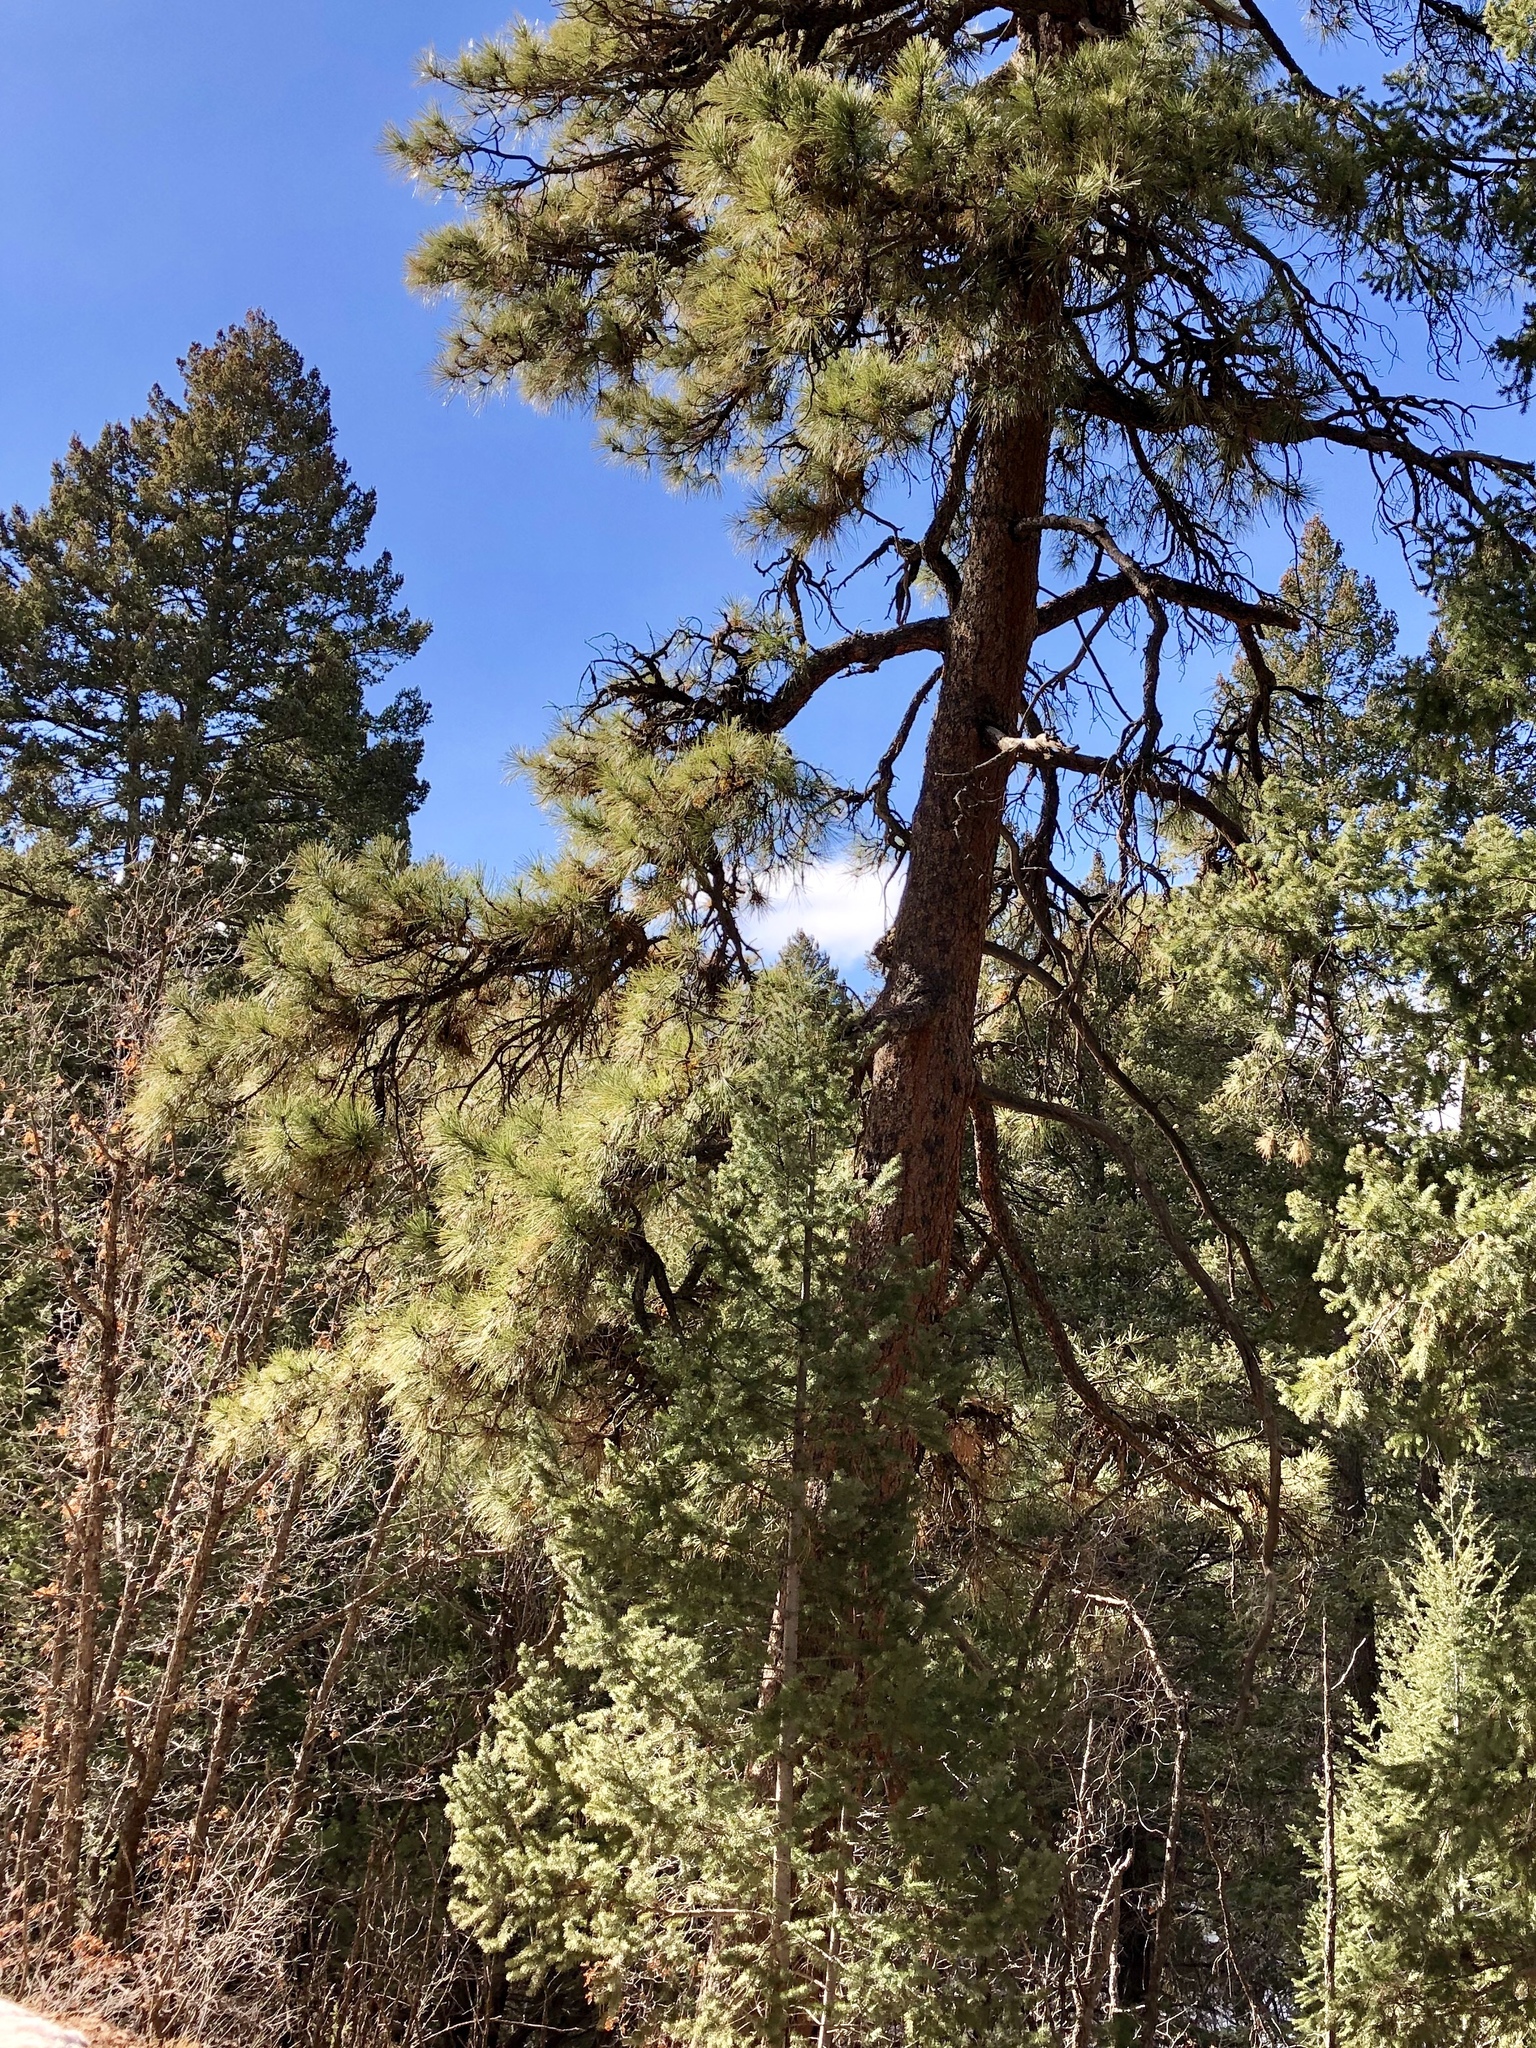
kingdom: Plantae
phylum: Tracheophyta
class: Pinopsida
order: Pinales
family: Pinaceae
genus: Pinus
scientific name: Pinus ponderosa
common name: Western yellow-pine
